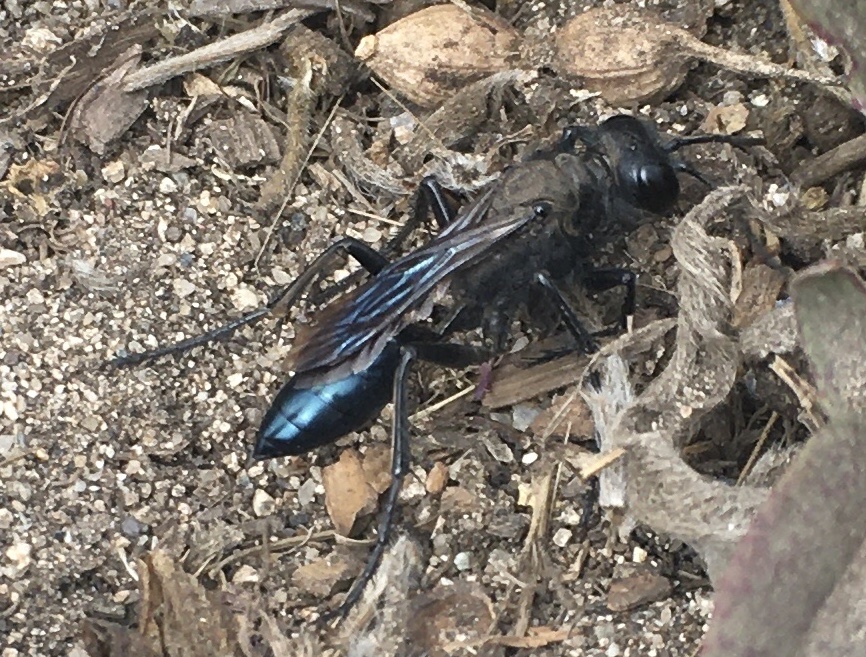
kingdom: Animalia
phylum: Arthropoda
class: Insecta
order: Hymenoptera
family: Sphecidae
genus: Podalonia
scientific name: Podalonia
